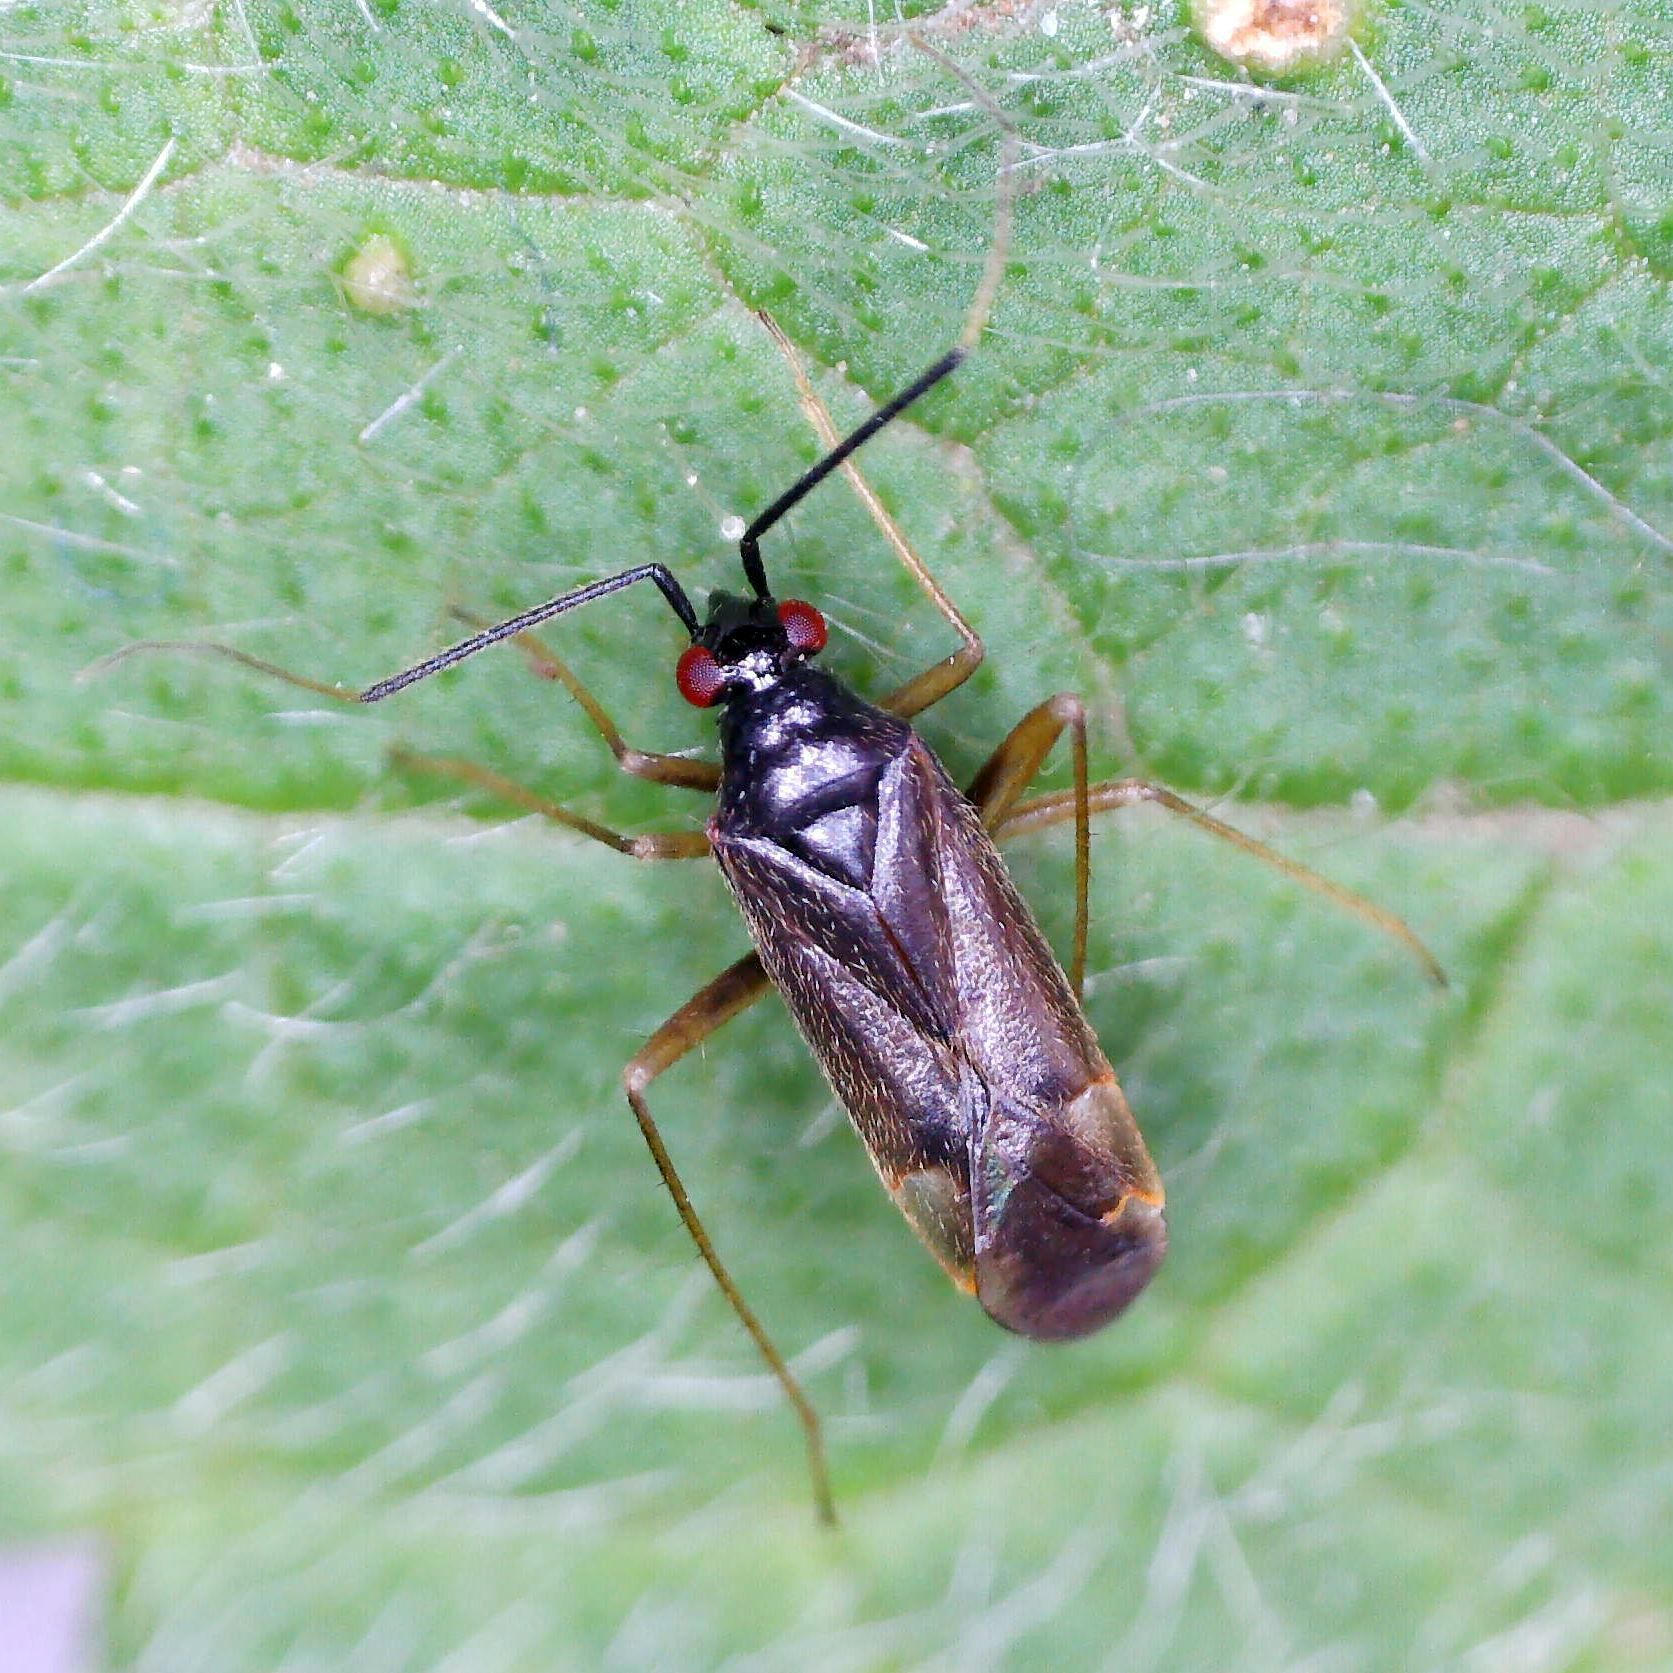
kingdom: Animalia
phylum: Arthropoda
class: Insecta
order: Hemiptera
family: Miridae
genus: Orthonotus
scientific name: Orthonotus rufifrons
